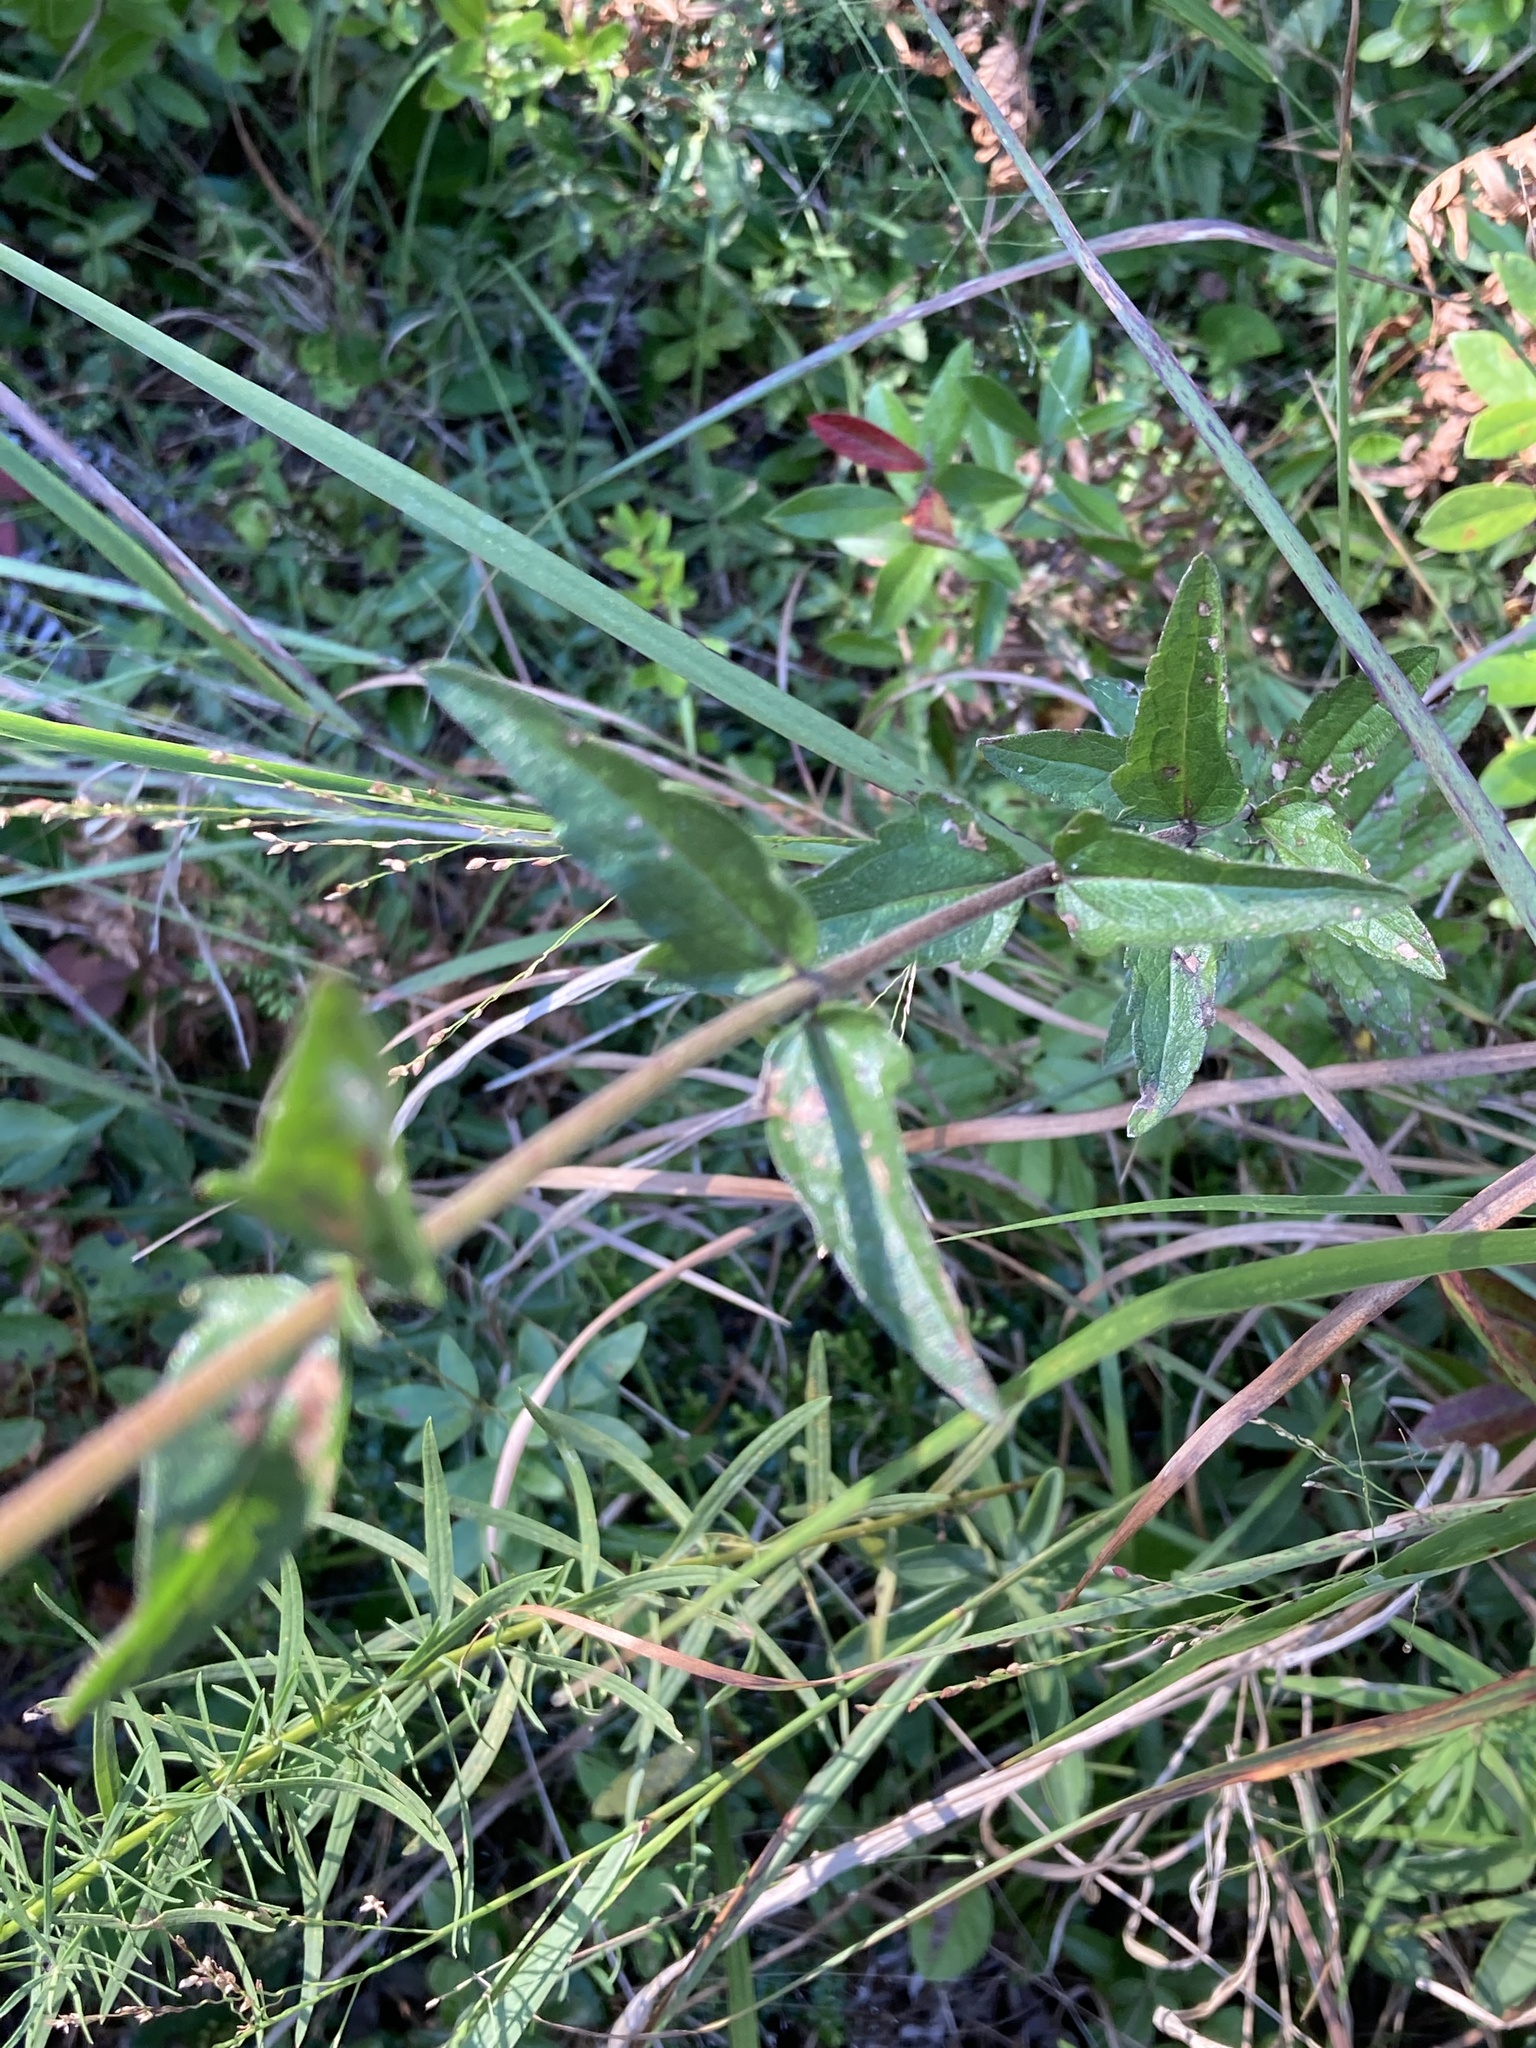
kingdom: Plantae
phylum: Tracheophyta
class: Magnoliopsida
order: Asterales
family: Asteraceae
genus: Eupatorium
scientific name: Eupatorium pilosum
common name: Rough boneset
